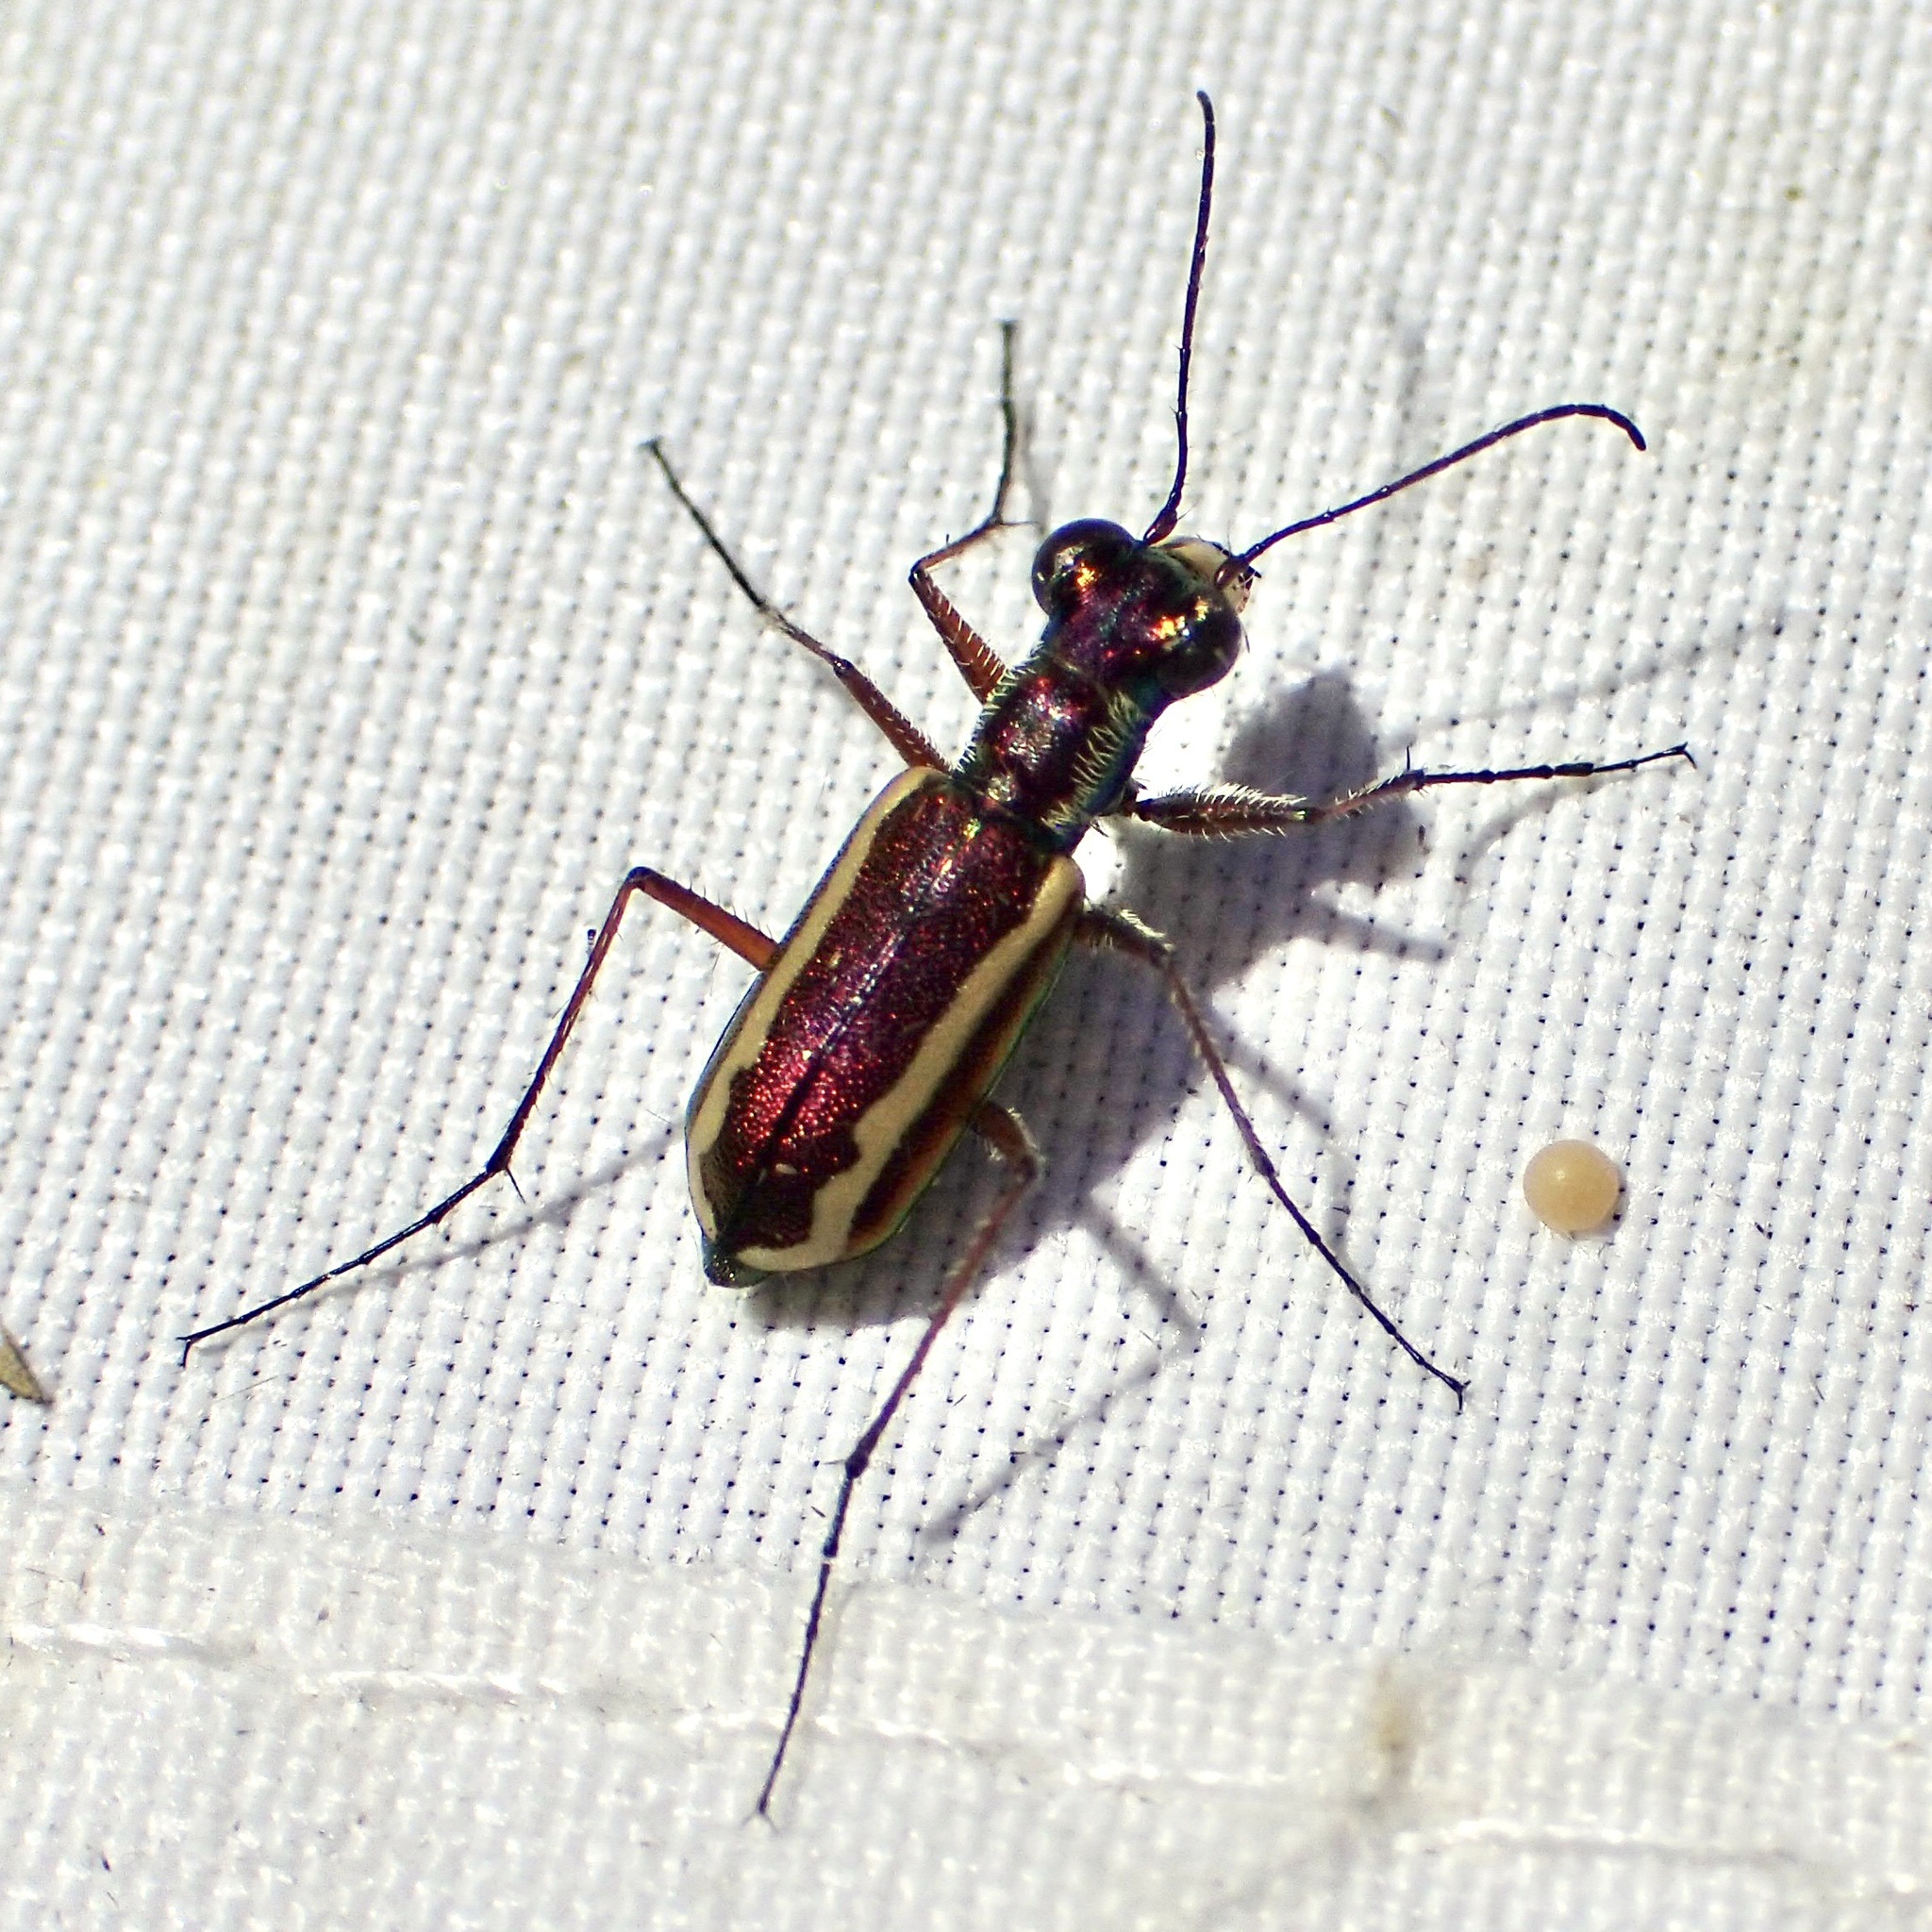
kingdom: Animalia
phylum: Arthropoda
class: Insecta
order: Coleoptera
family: Carabidae
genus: Cylindera
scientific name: Cylindera lemniscata
